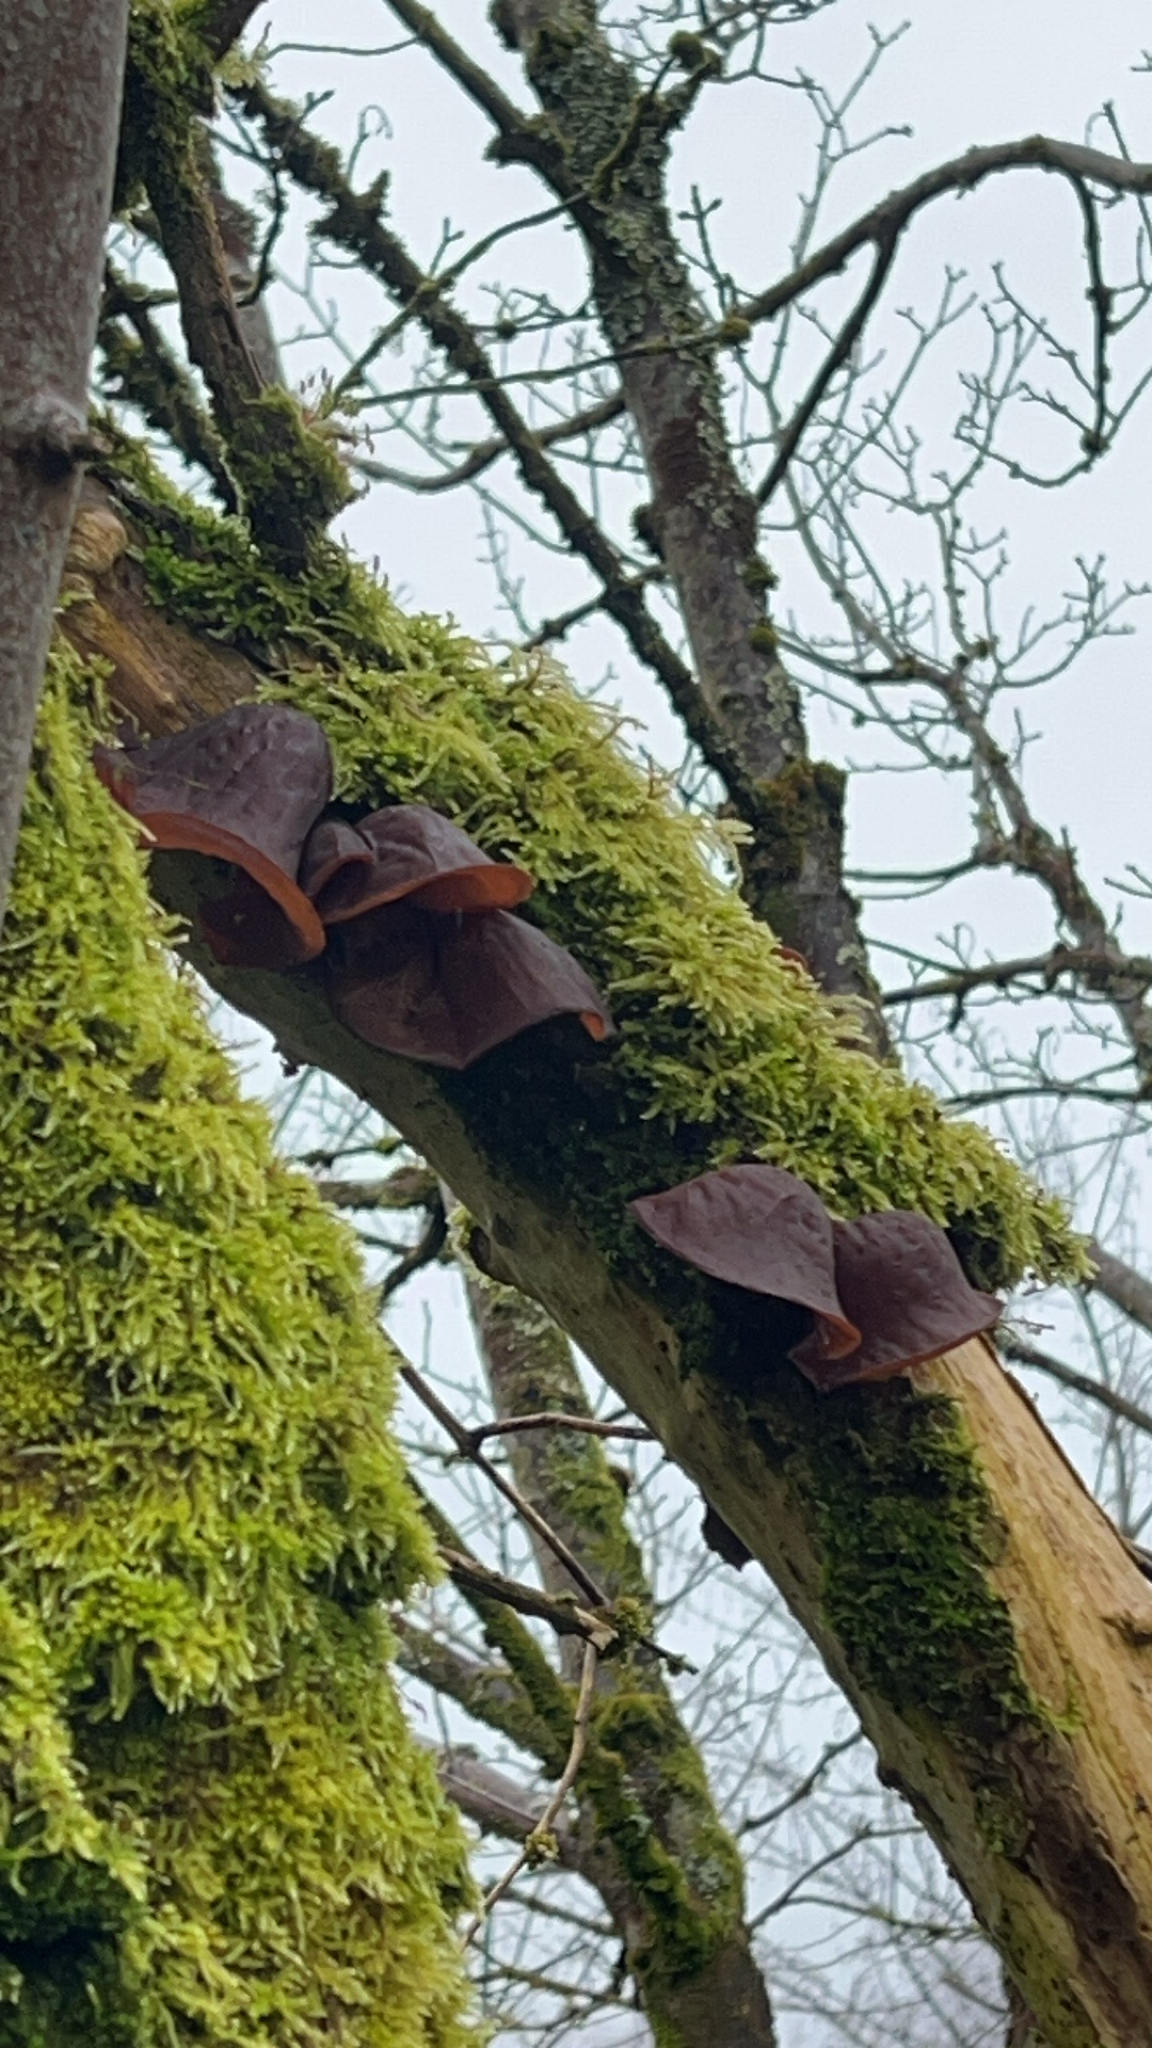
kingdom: Fungi
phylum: Basidiomycota
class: Agaricomycetes
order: Auriculariales
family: Auriculariaceae
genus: Auricularia
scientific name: Auricularia auricula-judae
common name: Jelly ear
